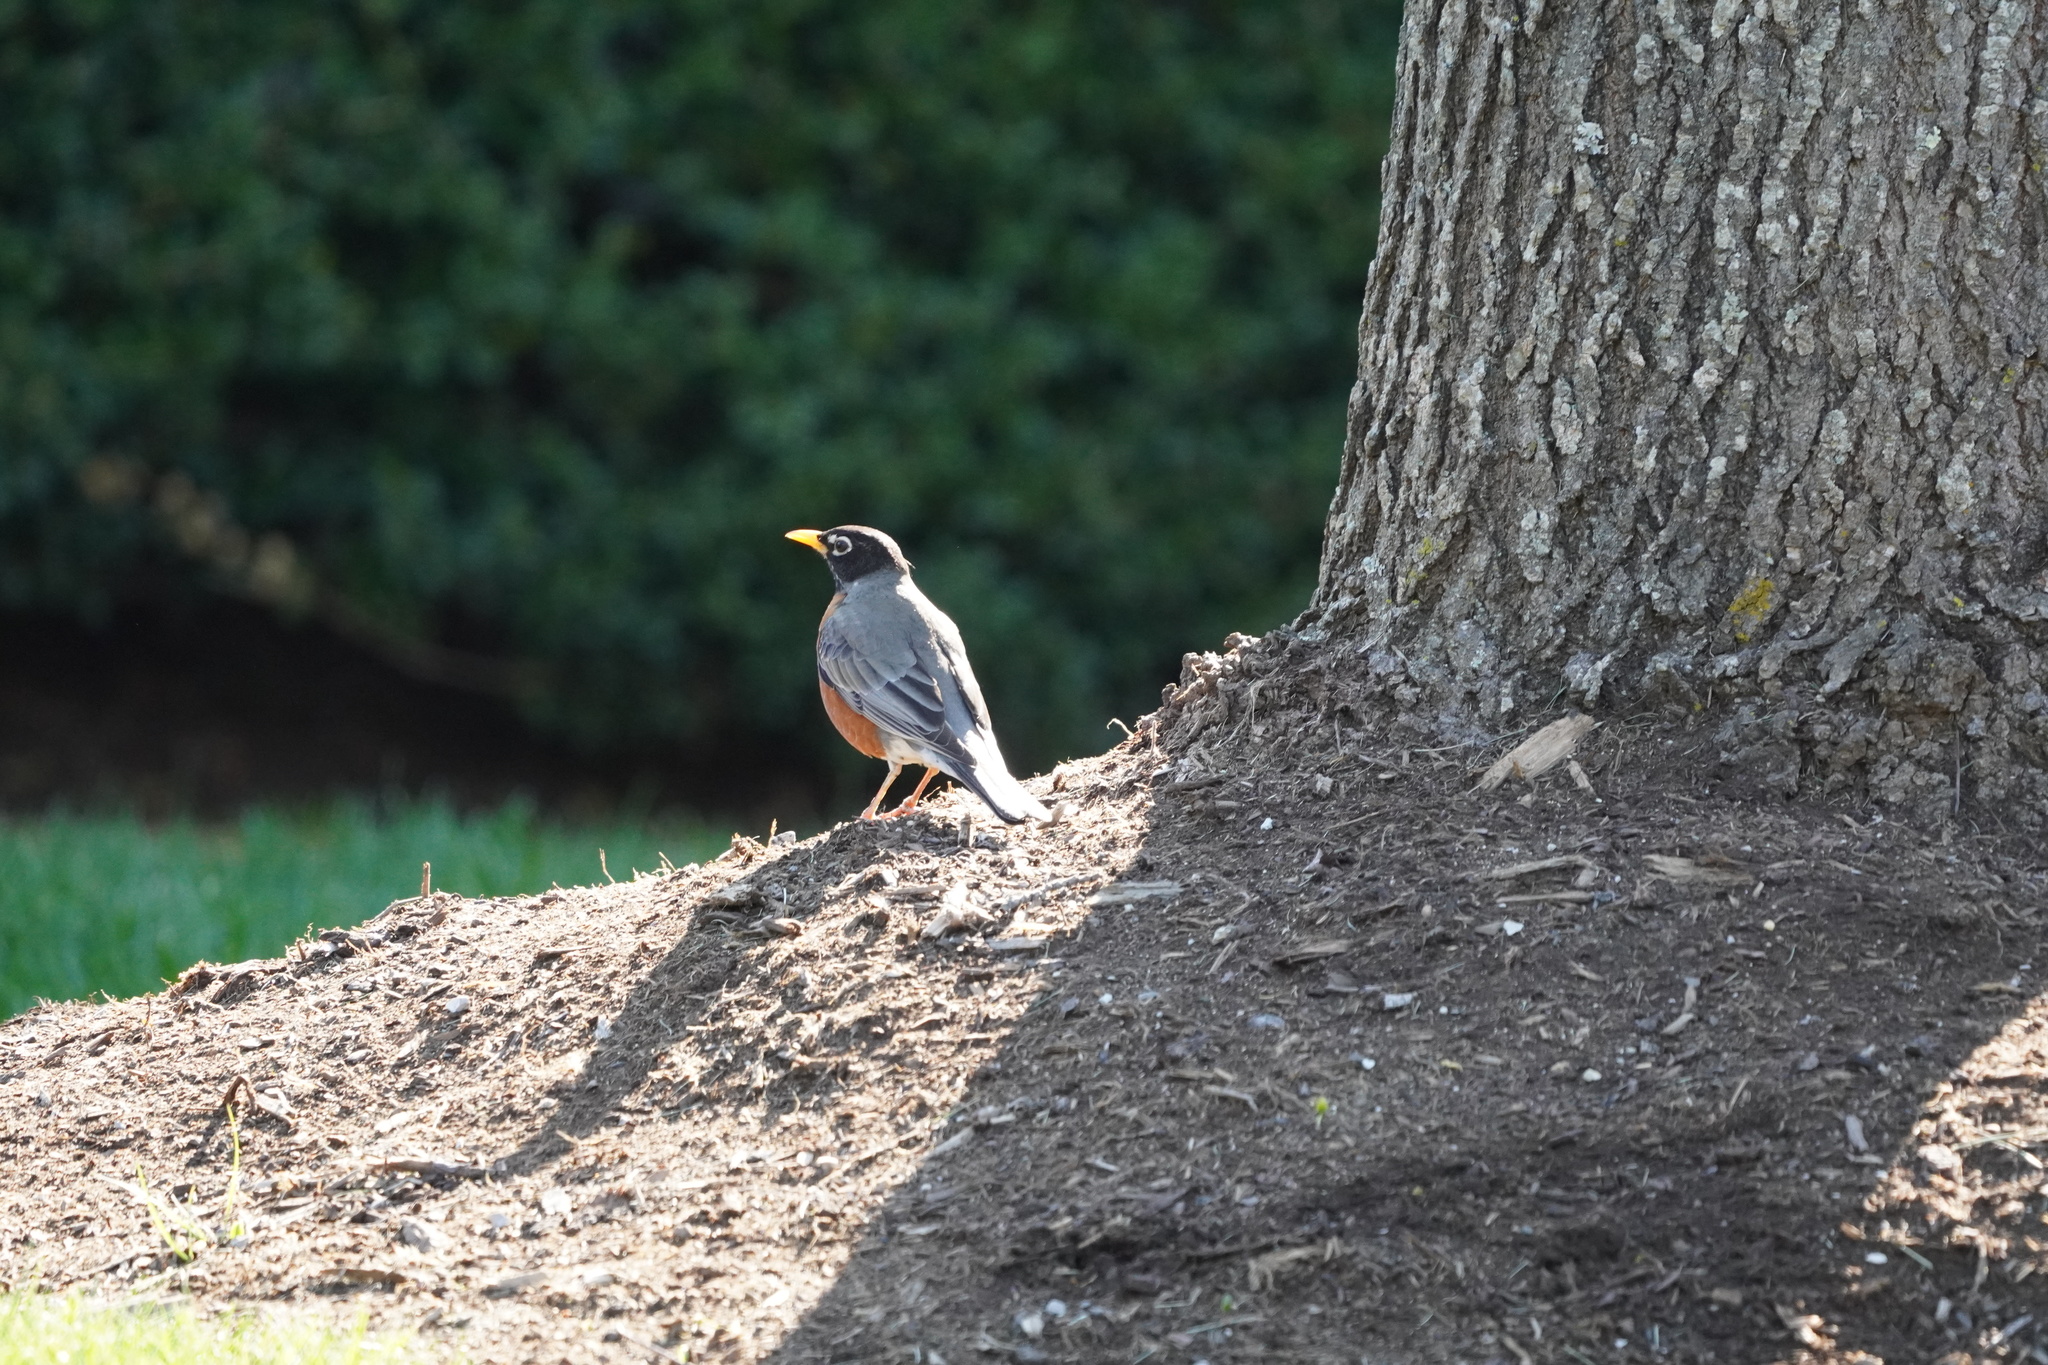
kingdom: Animalia
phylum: Chordata
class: Aves
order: Passeriformes
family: Turdidae
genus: Turdus
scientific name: Turdus migratorius
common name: American robin
